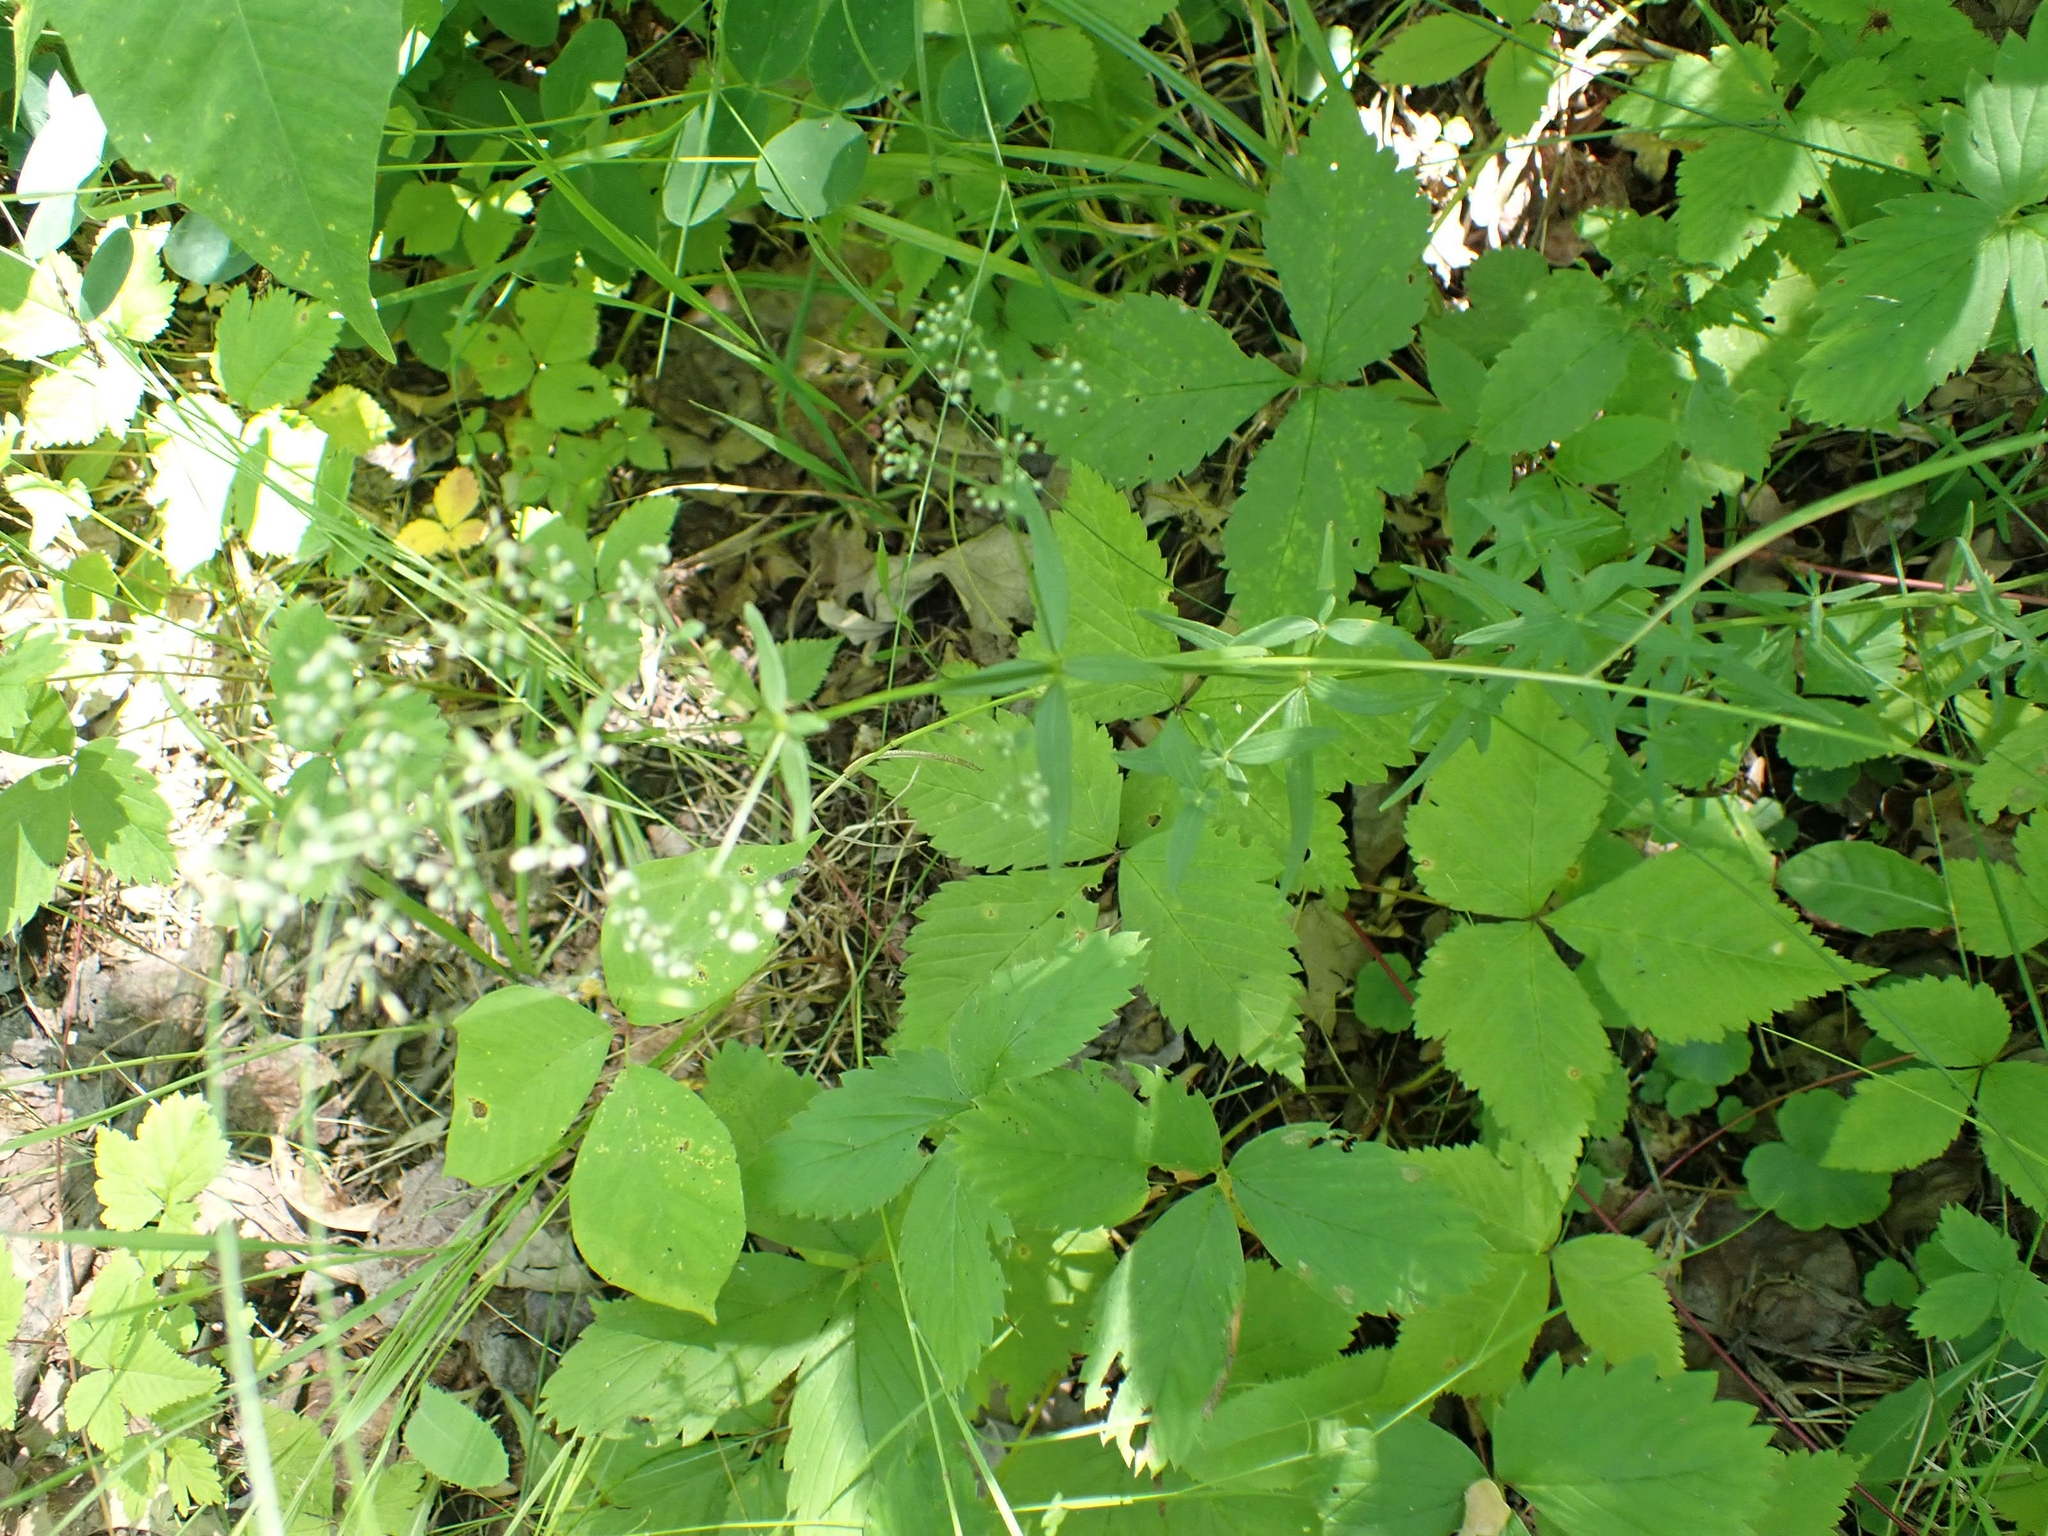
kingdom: Plantae
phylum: Tracheophyta
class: Magnoliopsida
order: Gentianales
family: Rubiaceae
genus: Galium
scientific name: Galium boreale
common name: Northern bedstraw
